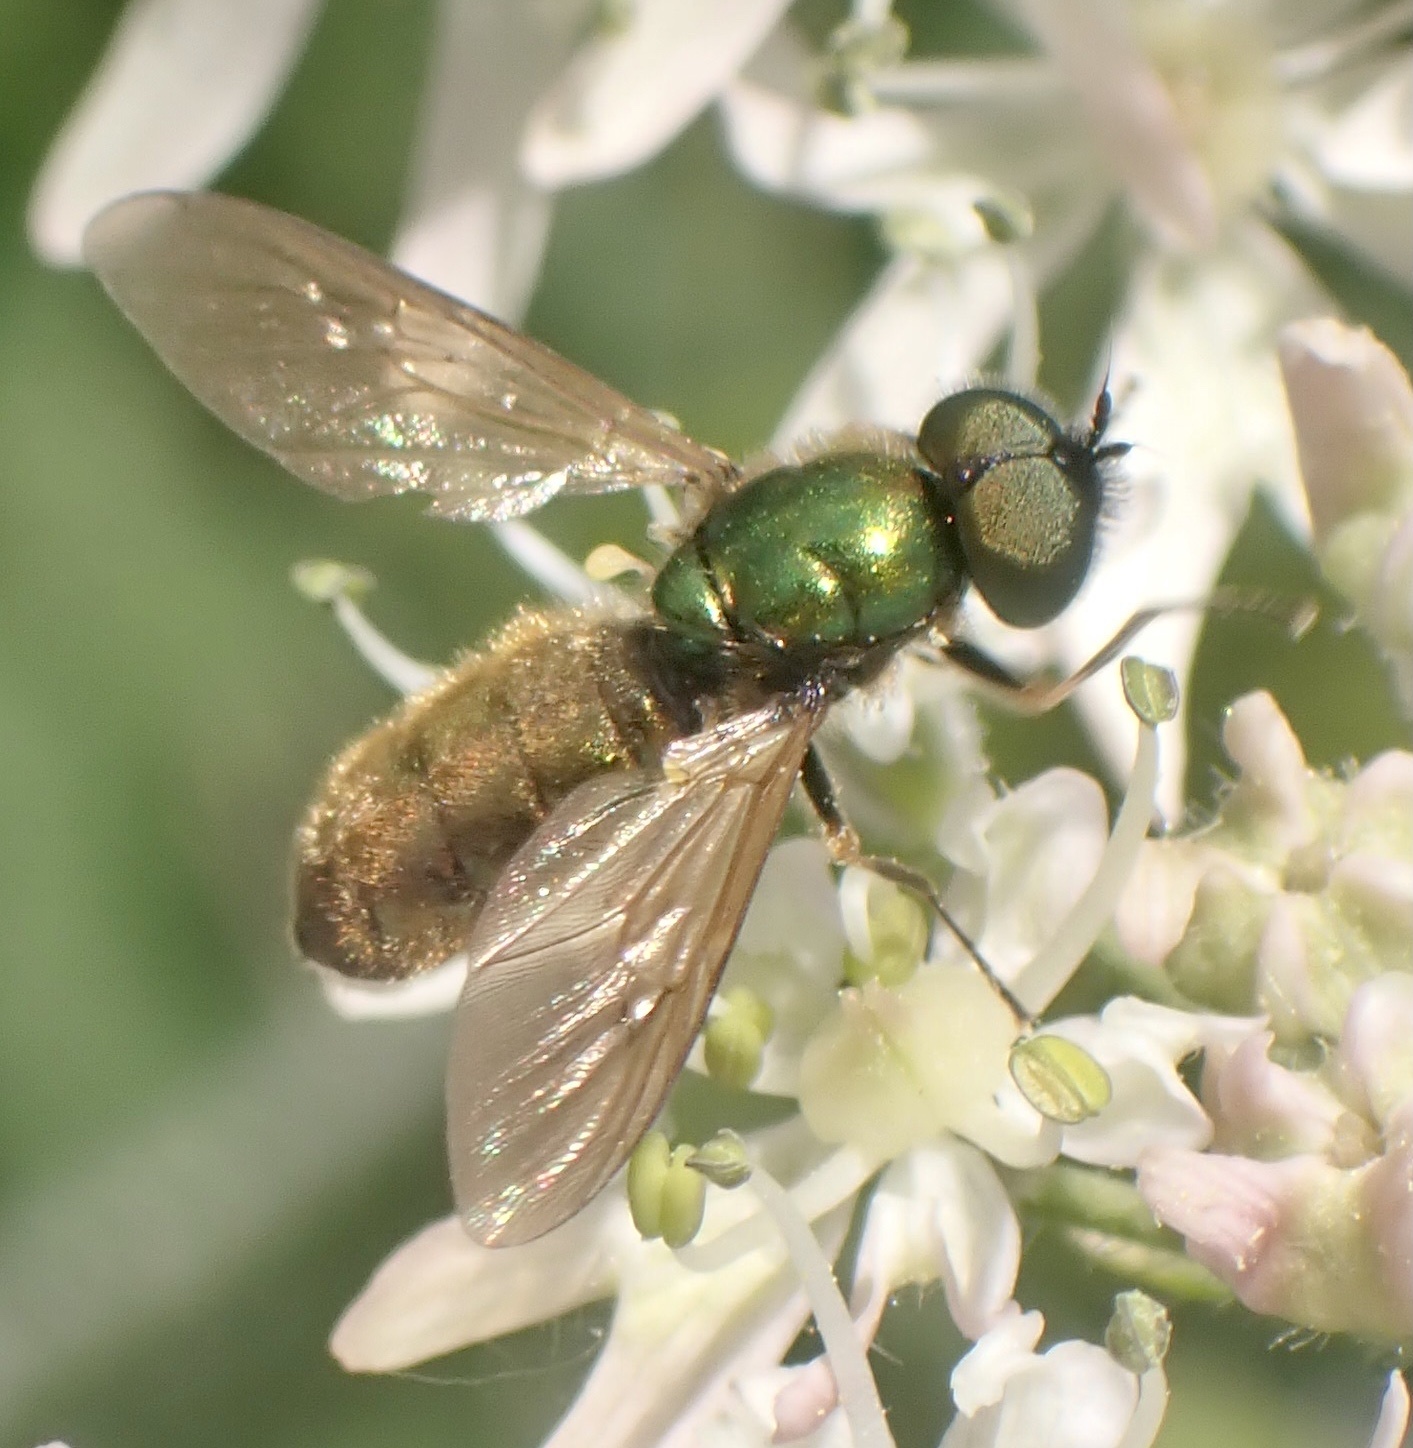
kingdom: Animalia
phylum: Arthropoda
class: Insecta
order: Diptera
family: Stratiomyidae
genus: Chloromyia
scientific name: Chloromyia formosa
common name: Soldier fly
